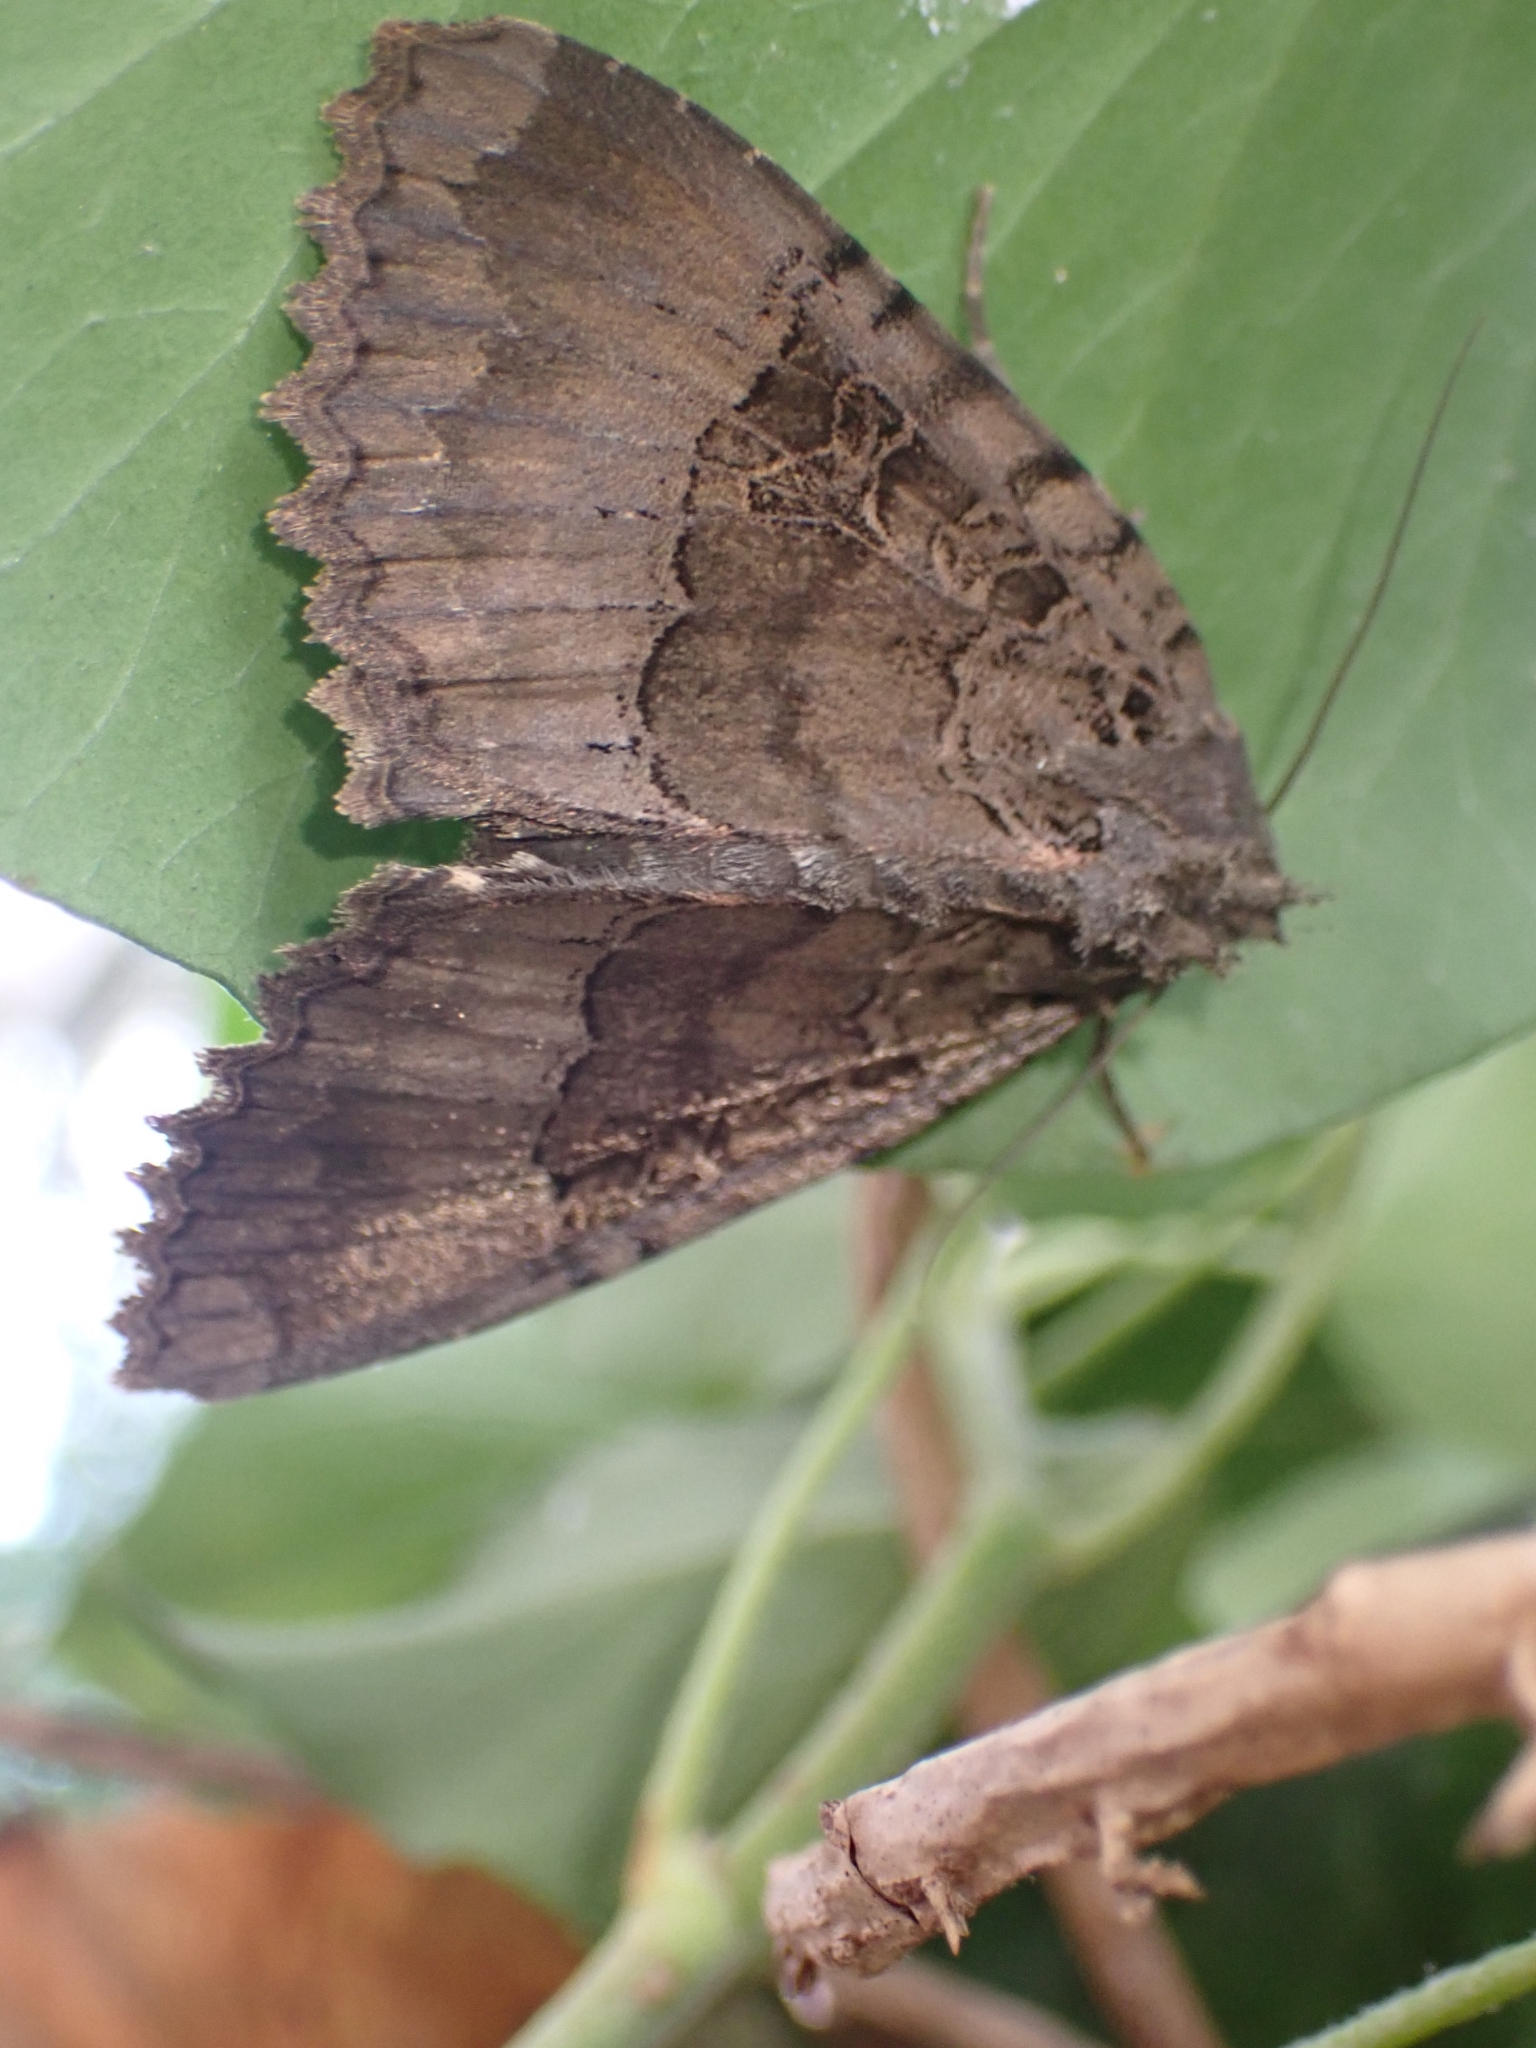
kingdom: Animalia
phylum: Arthropoda
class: Insecta
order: Lepidoptera
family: Noctuidae
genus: Mormo
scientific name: Mormo maura
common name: Old lady
